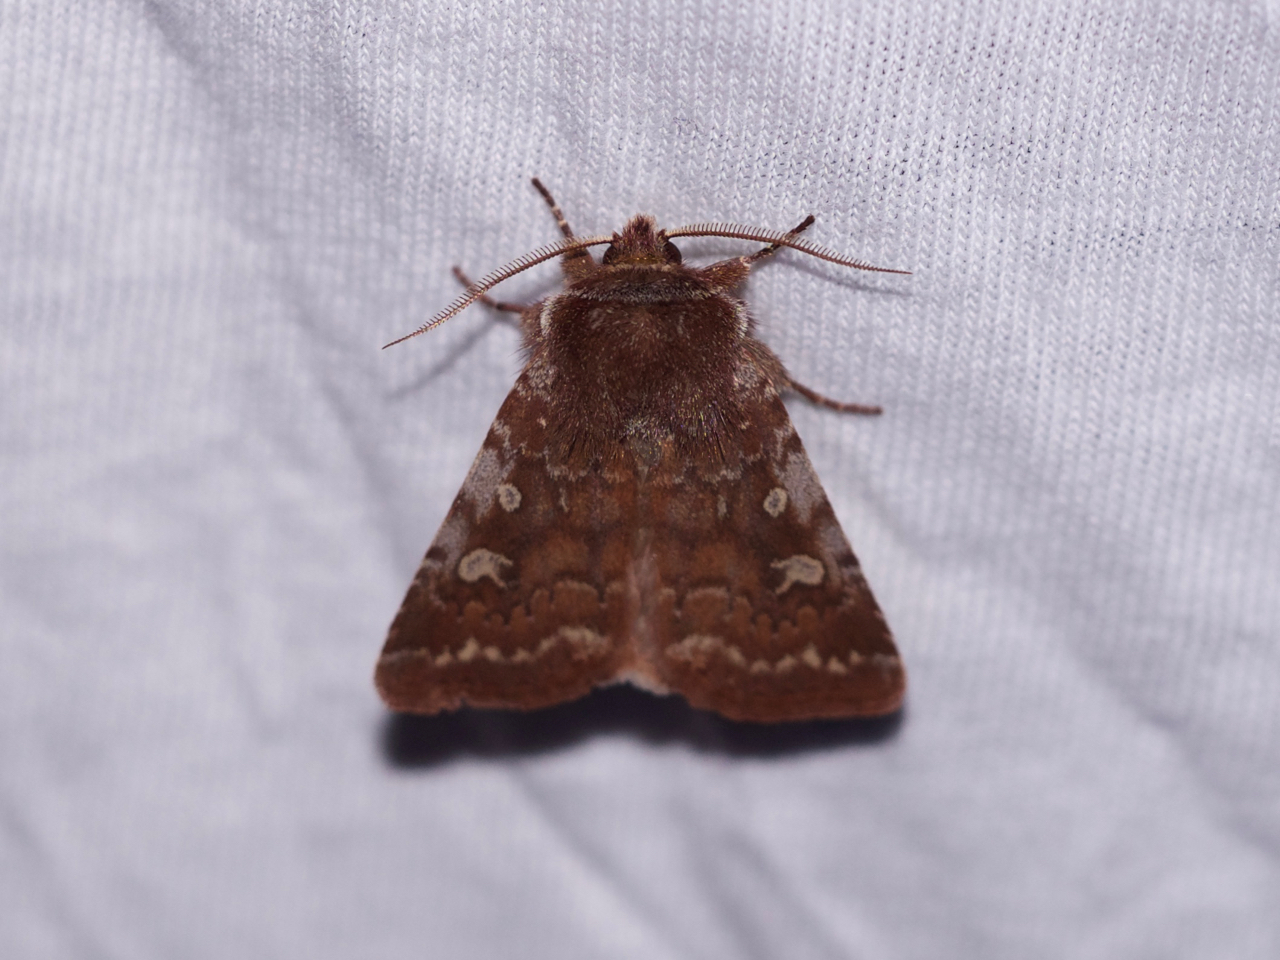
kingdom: Animalia
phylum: Arthropoda
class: Insecta
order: Lepidoptera
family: Noctuidae
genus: Cerastis
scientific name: Cerastis tenebrifera
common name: Reddish speckled dart
